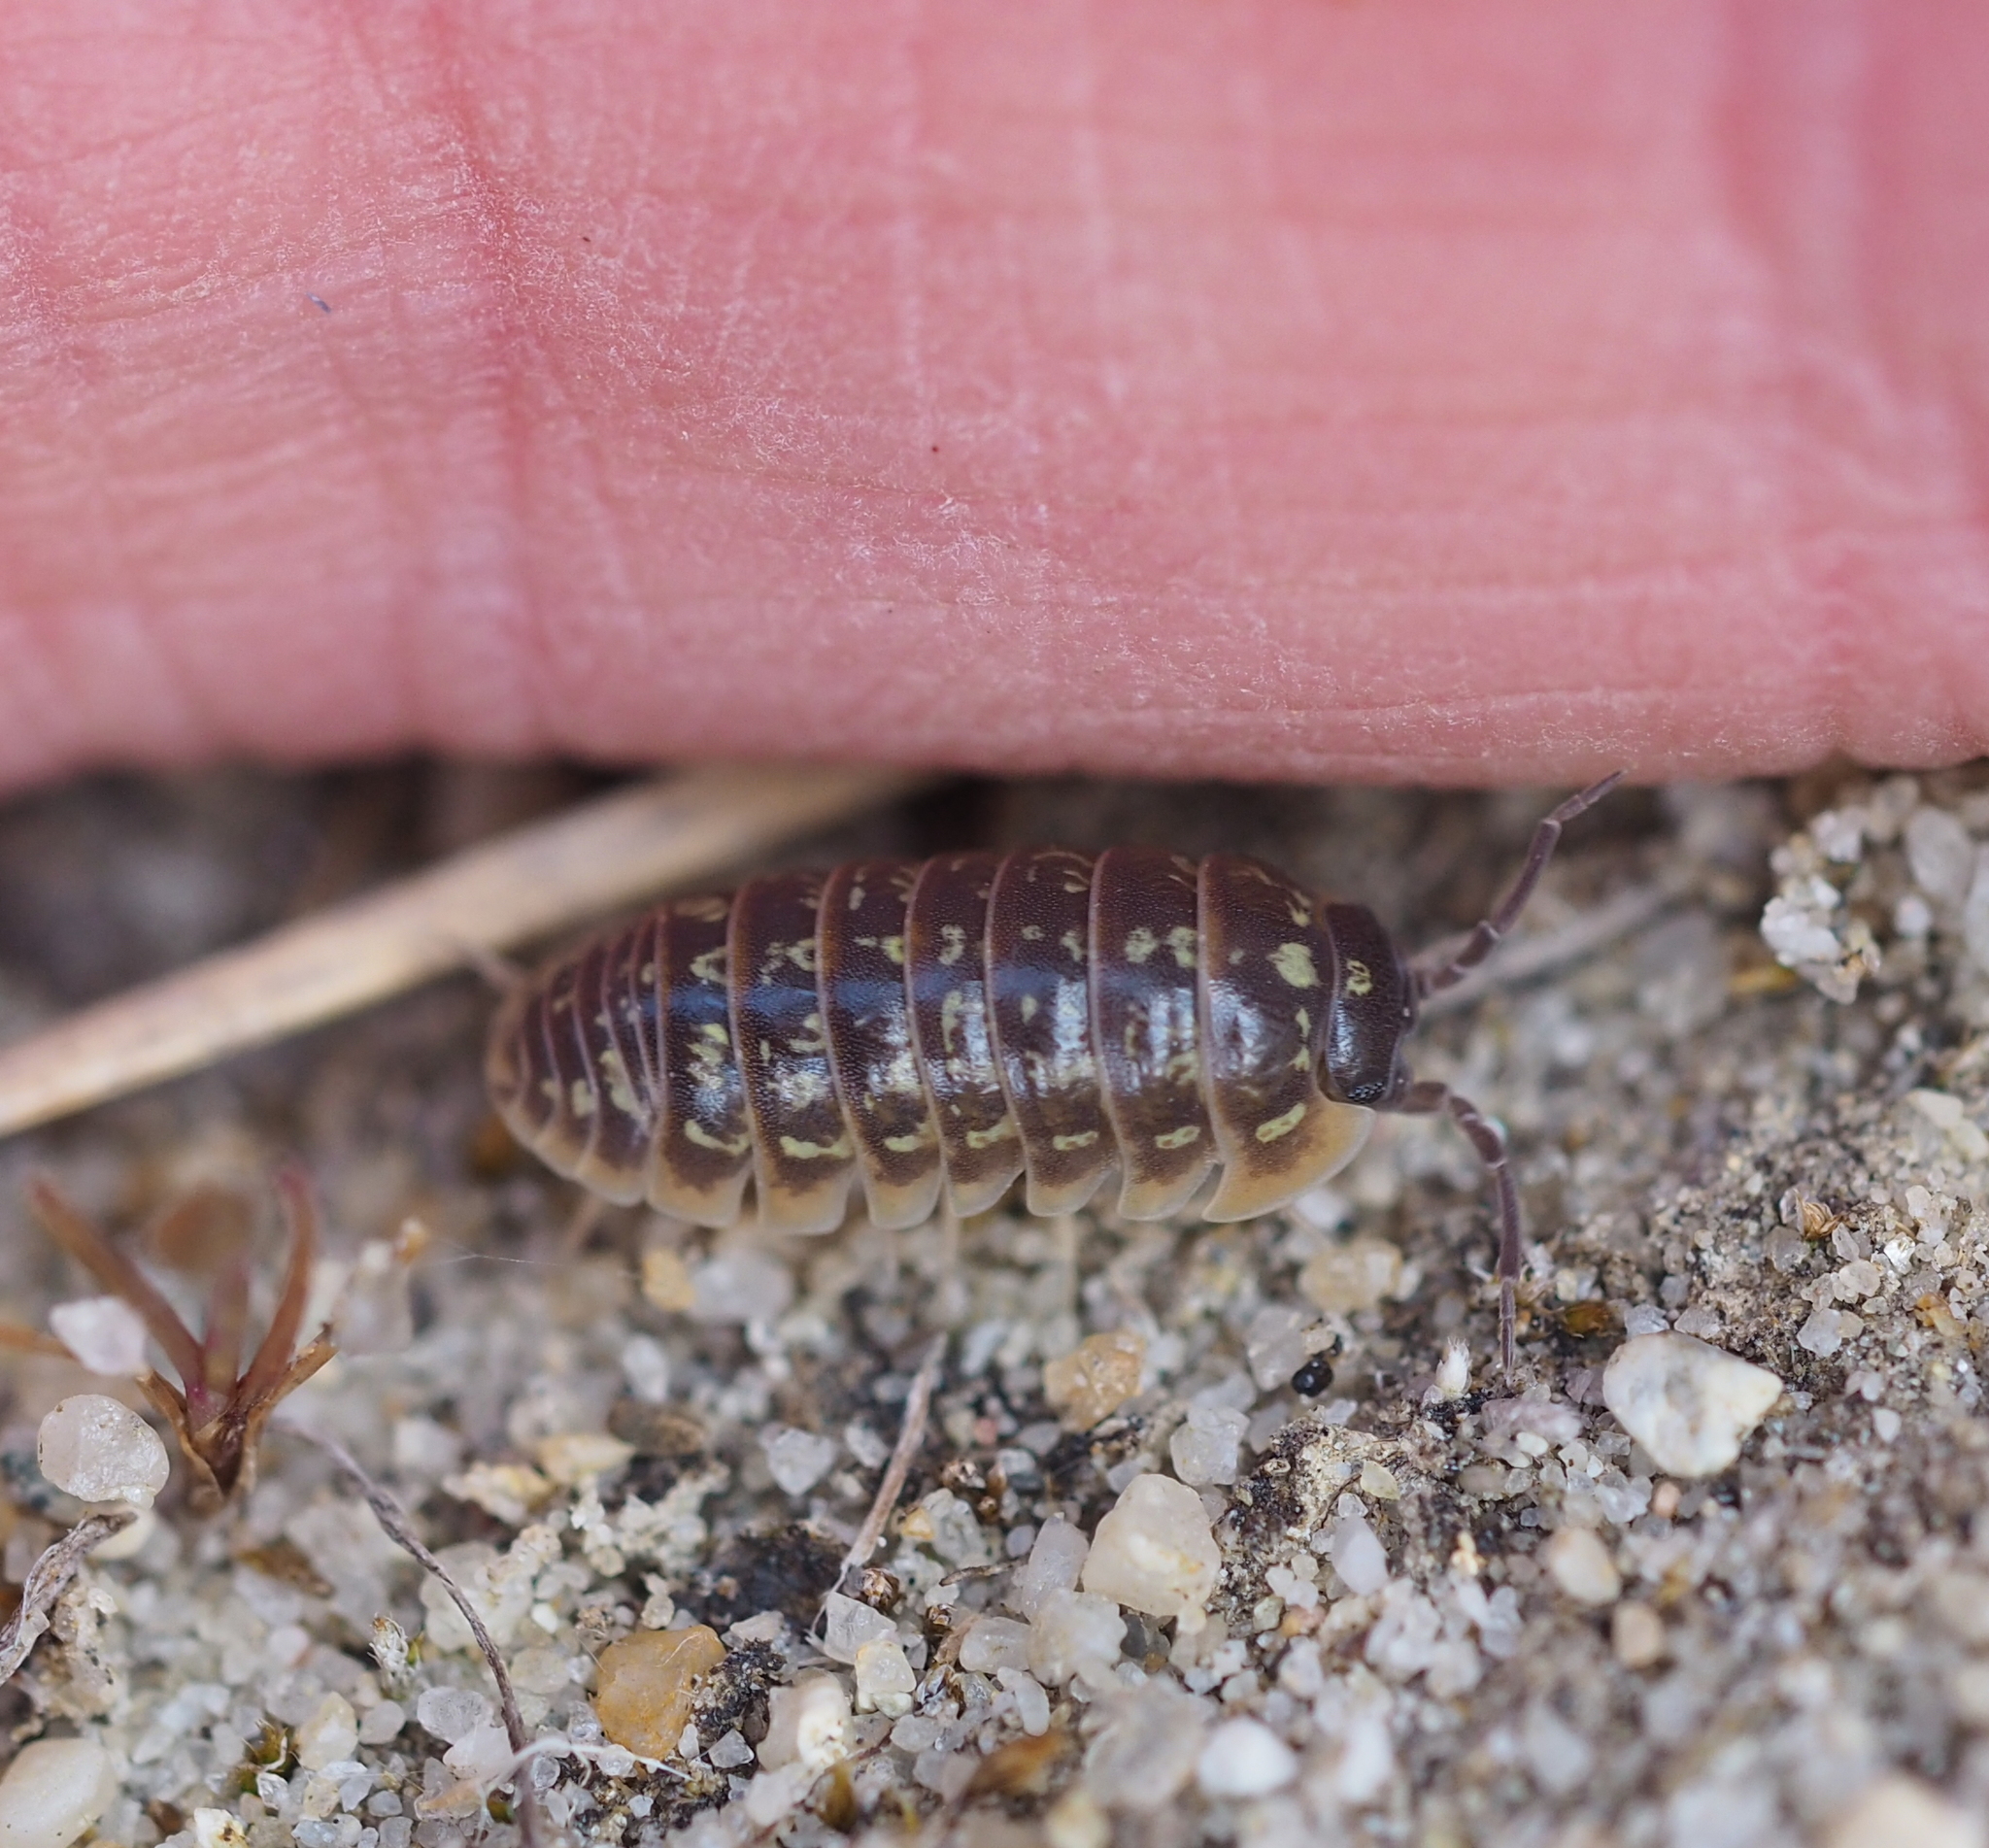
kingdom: Animalia
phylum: Arthropoda
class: Malacostraca
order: Isopoda
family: Armadillidiidae
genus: Armadillidium
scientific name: Armadillidium versicolor
